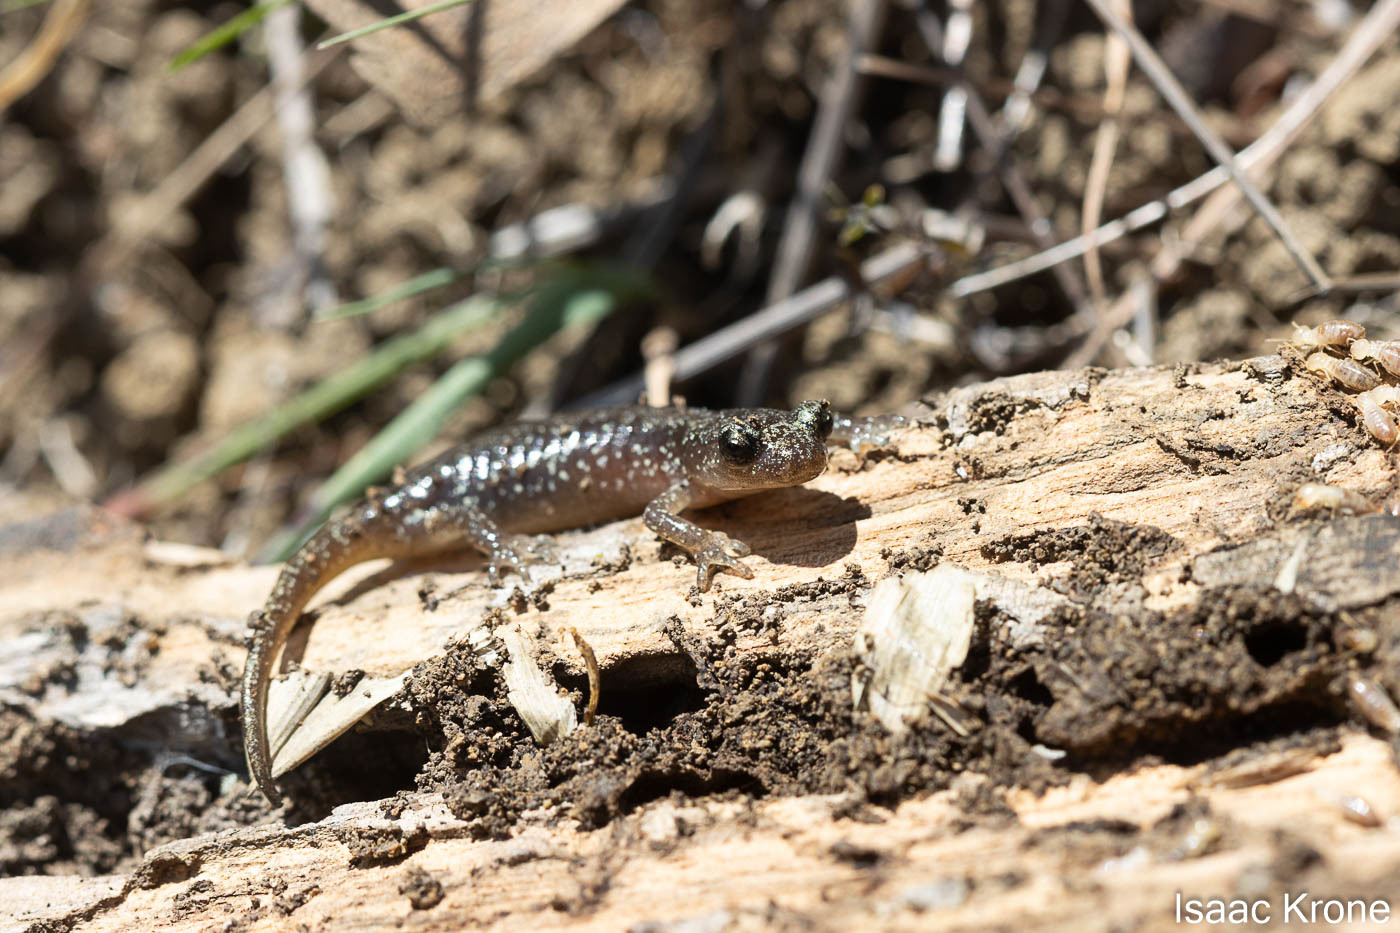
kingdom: Animalia
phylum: Chordata
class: Amphibia
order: Caudata
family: Plethodontidae
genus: Aneides
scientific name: Aneides lugubris
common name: Arboreal salamander
